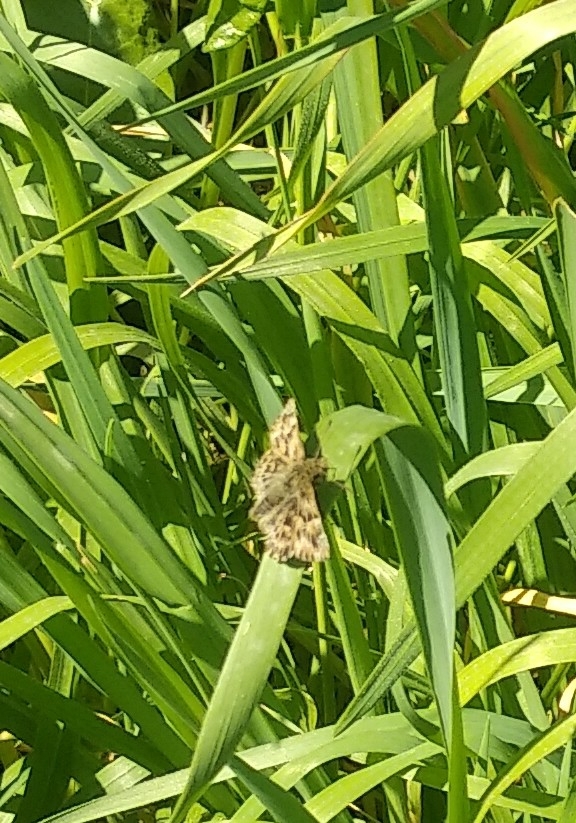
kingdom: Animalia
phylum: Arthropoda
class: Insecta
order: Lepidoptera
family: Hesperiidae
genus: Carcharodus
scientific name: Carcharodus alceae
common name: Mallow skipper
